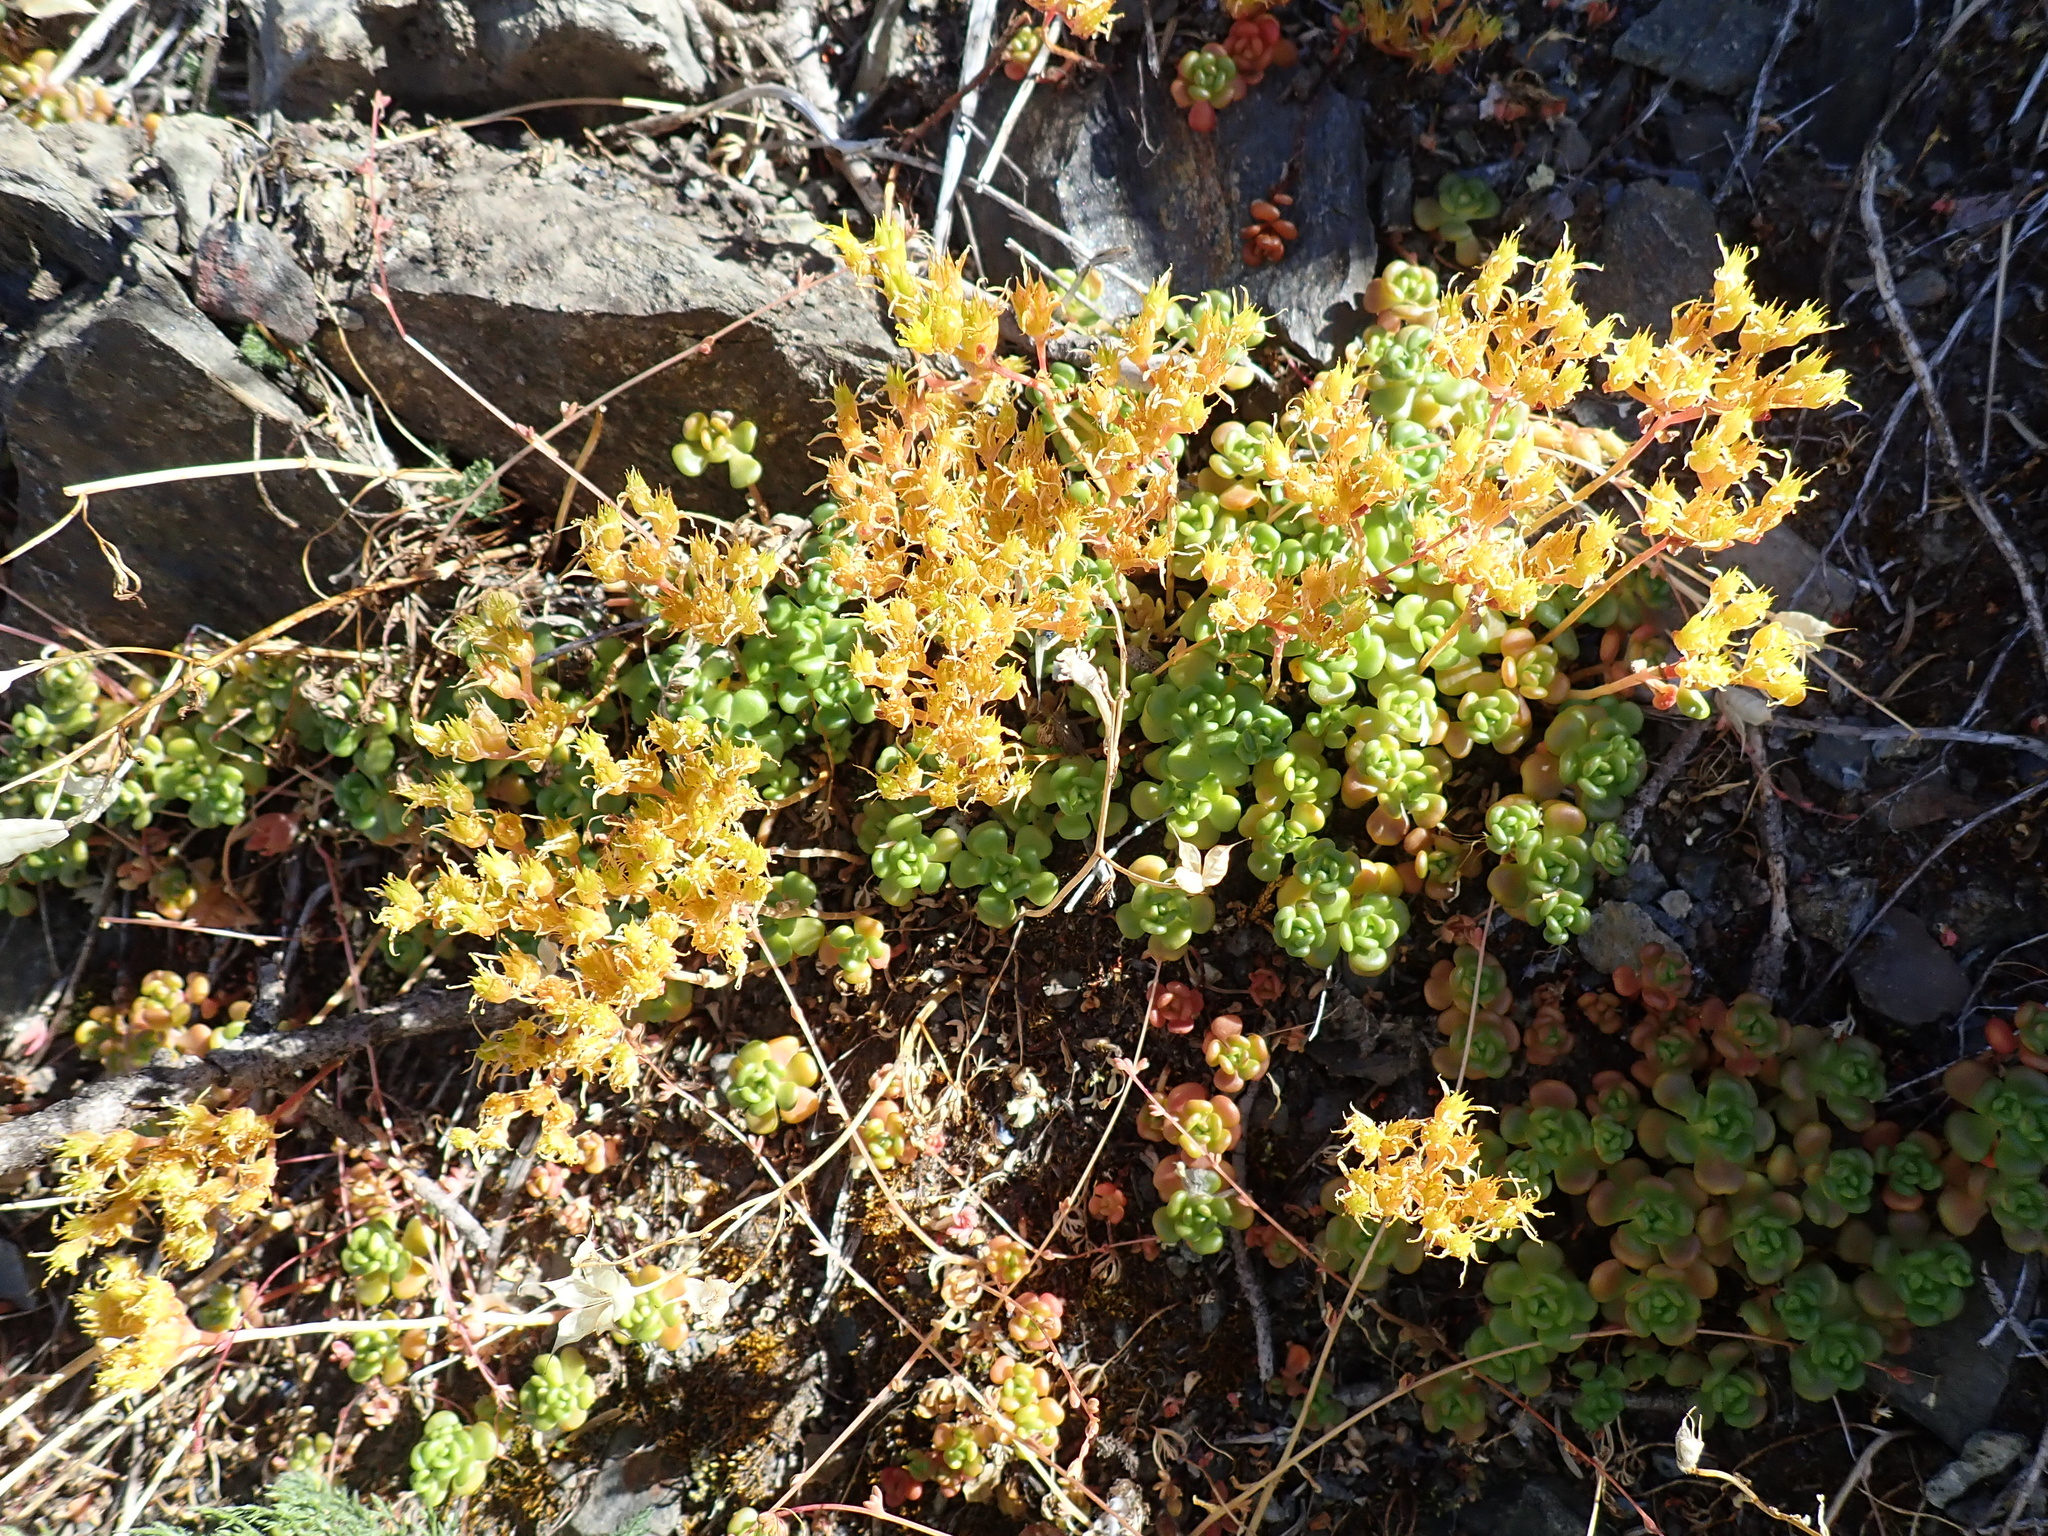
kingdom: Plantae
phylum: Tracheophyta
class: Magnoliopsida
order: Saxifragales
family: Crassulaceae
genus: Sedum
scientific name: Sedum oreganum
